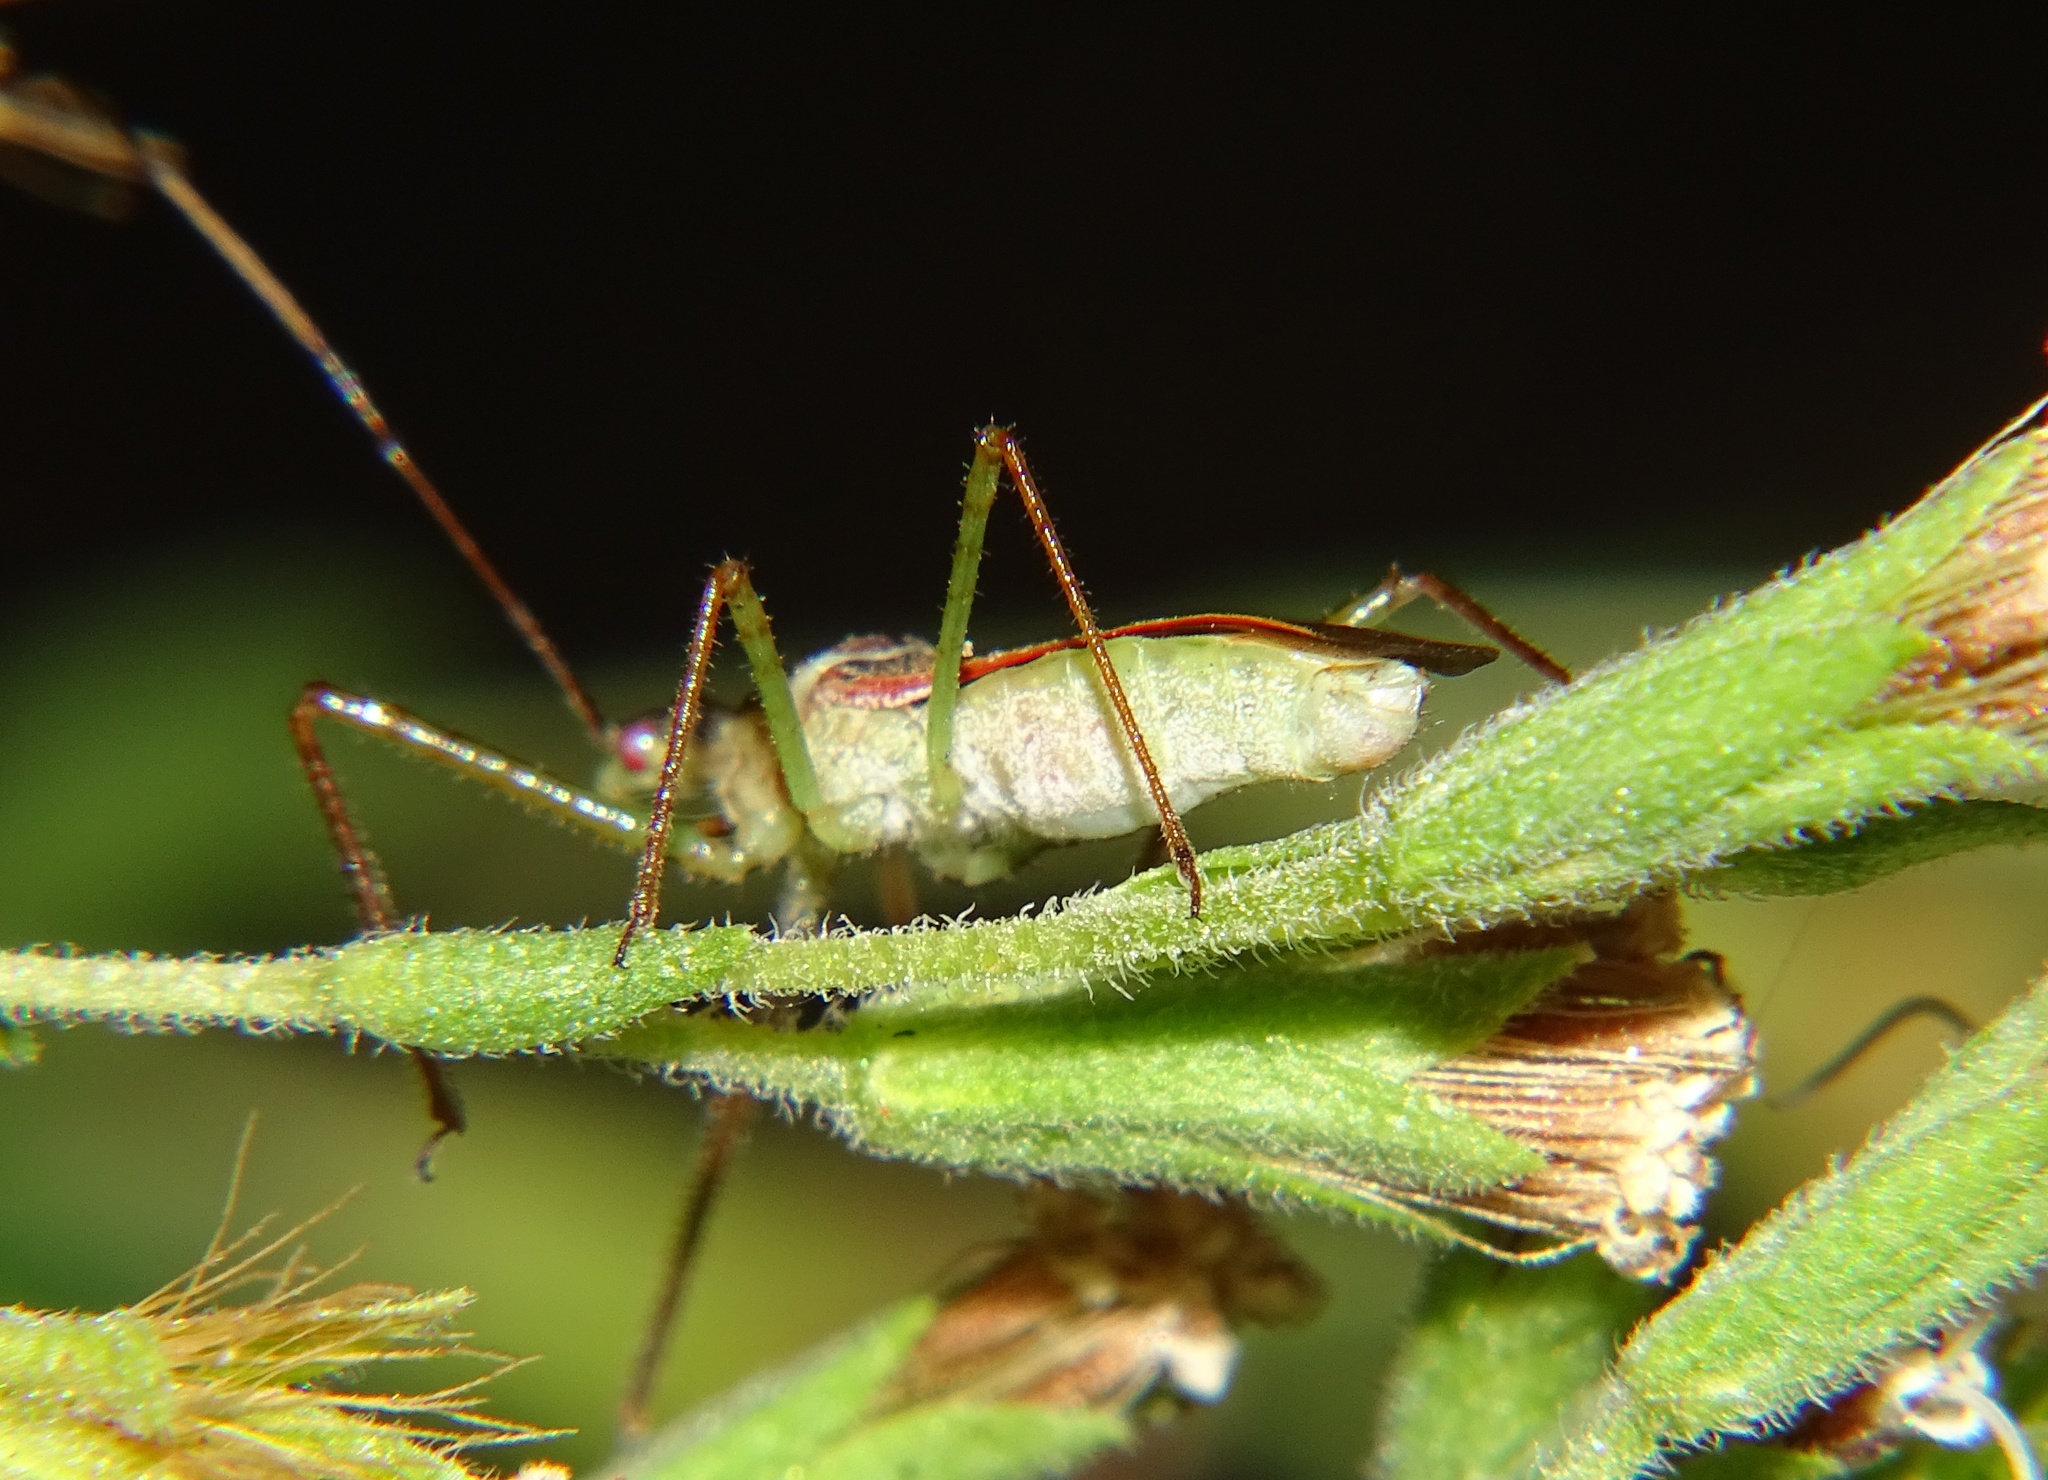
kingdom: Animalia
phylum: Arthropoda
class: Insecta
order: Hemiptera
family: Reduviidae
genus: Zelus
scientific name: Zelus renardii
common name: Assassin bug
